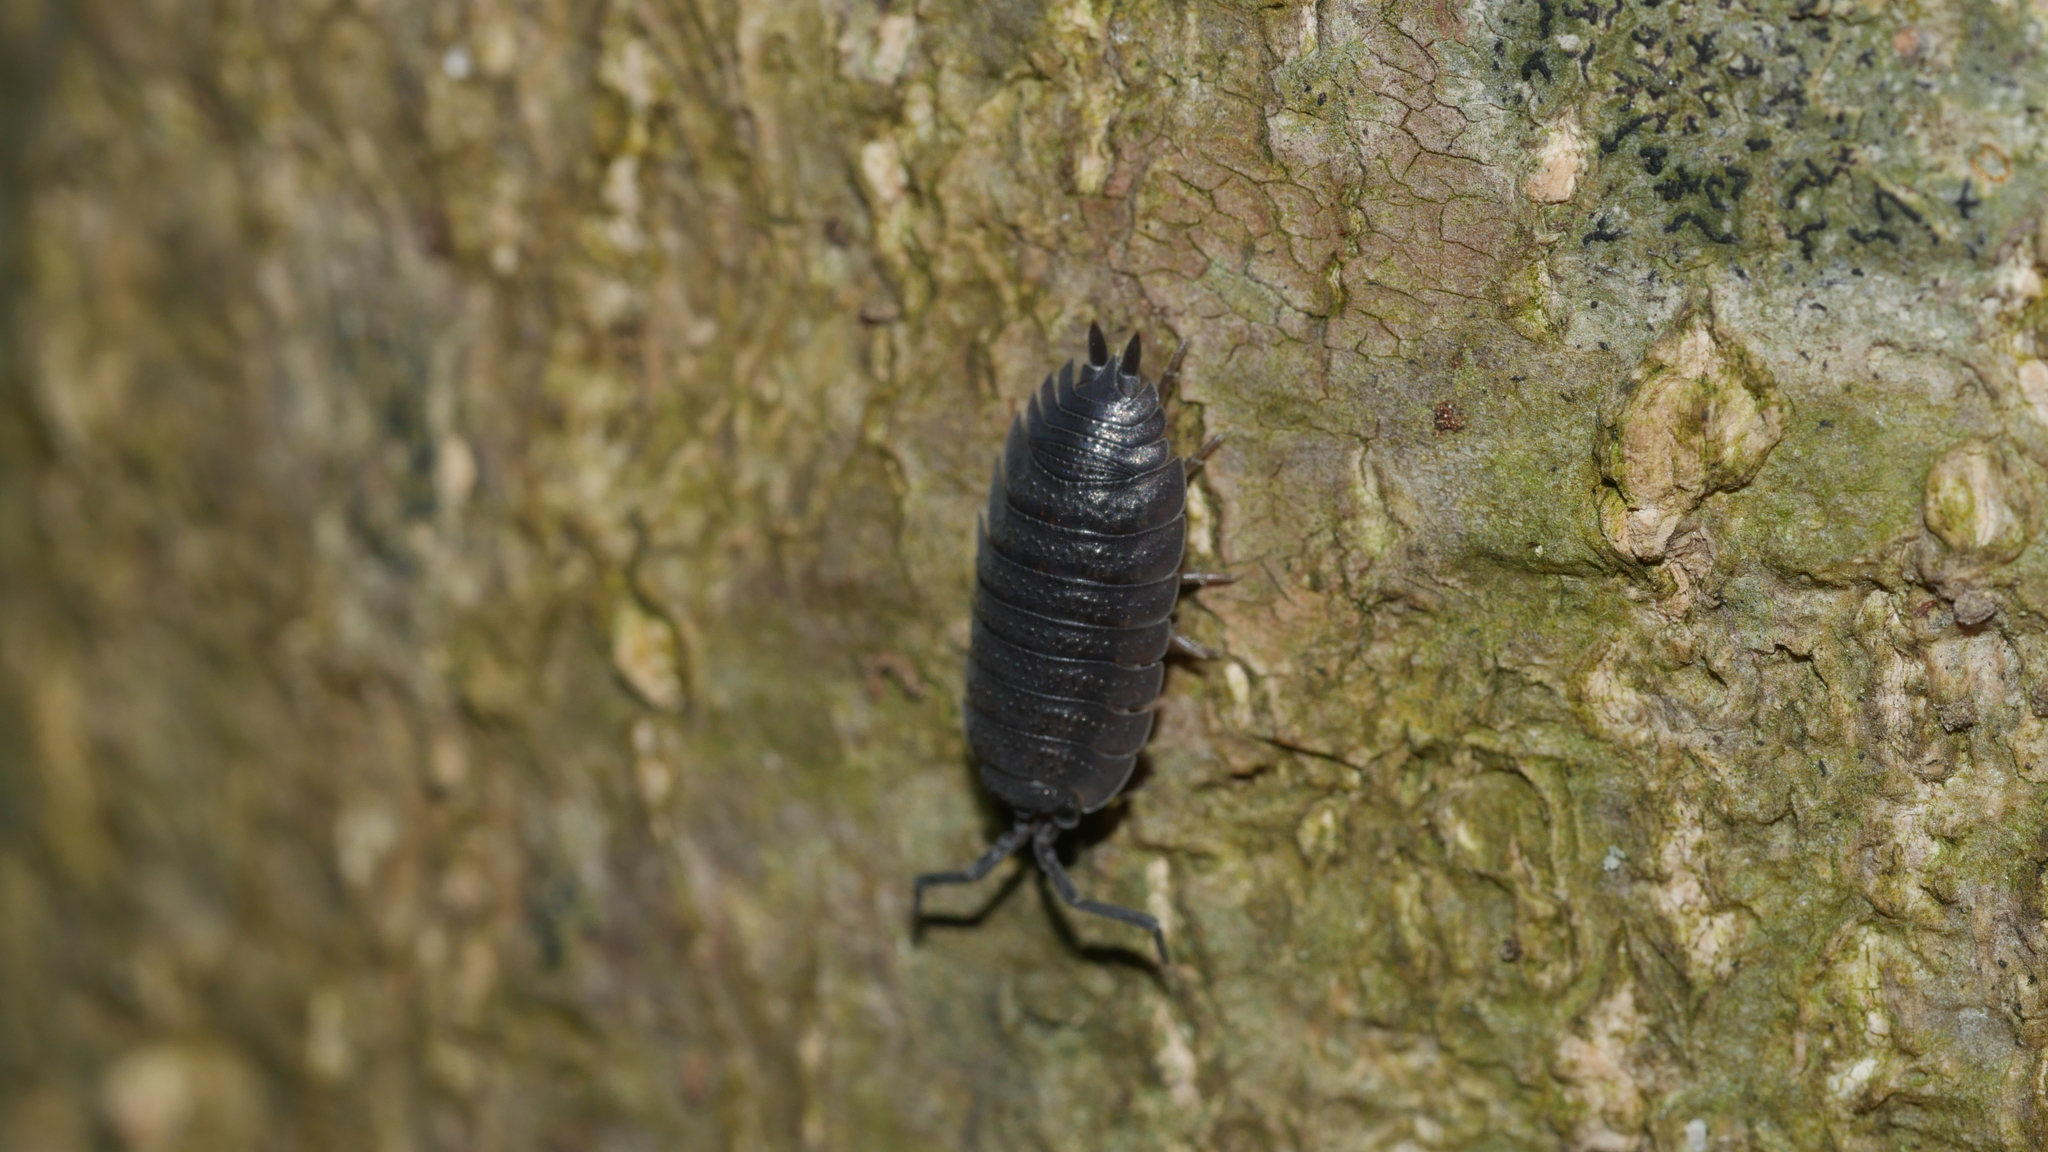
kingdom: Animalia
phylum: Arthropoda
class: Malacostraca
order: Isopoda
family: Porcellionidae
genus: Porcellio
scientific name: Porcellio scaber
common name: Common rough woodlouse
